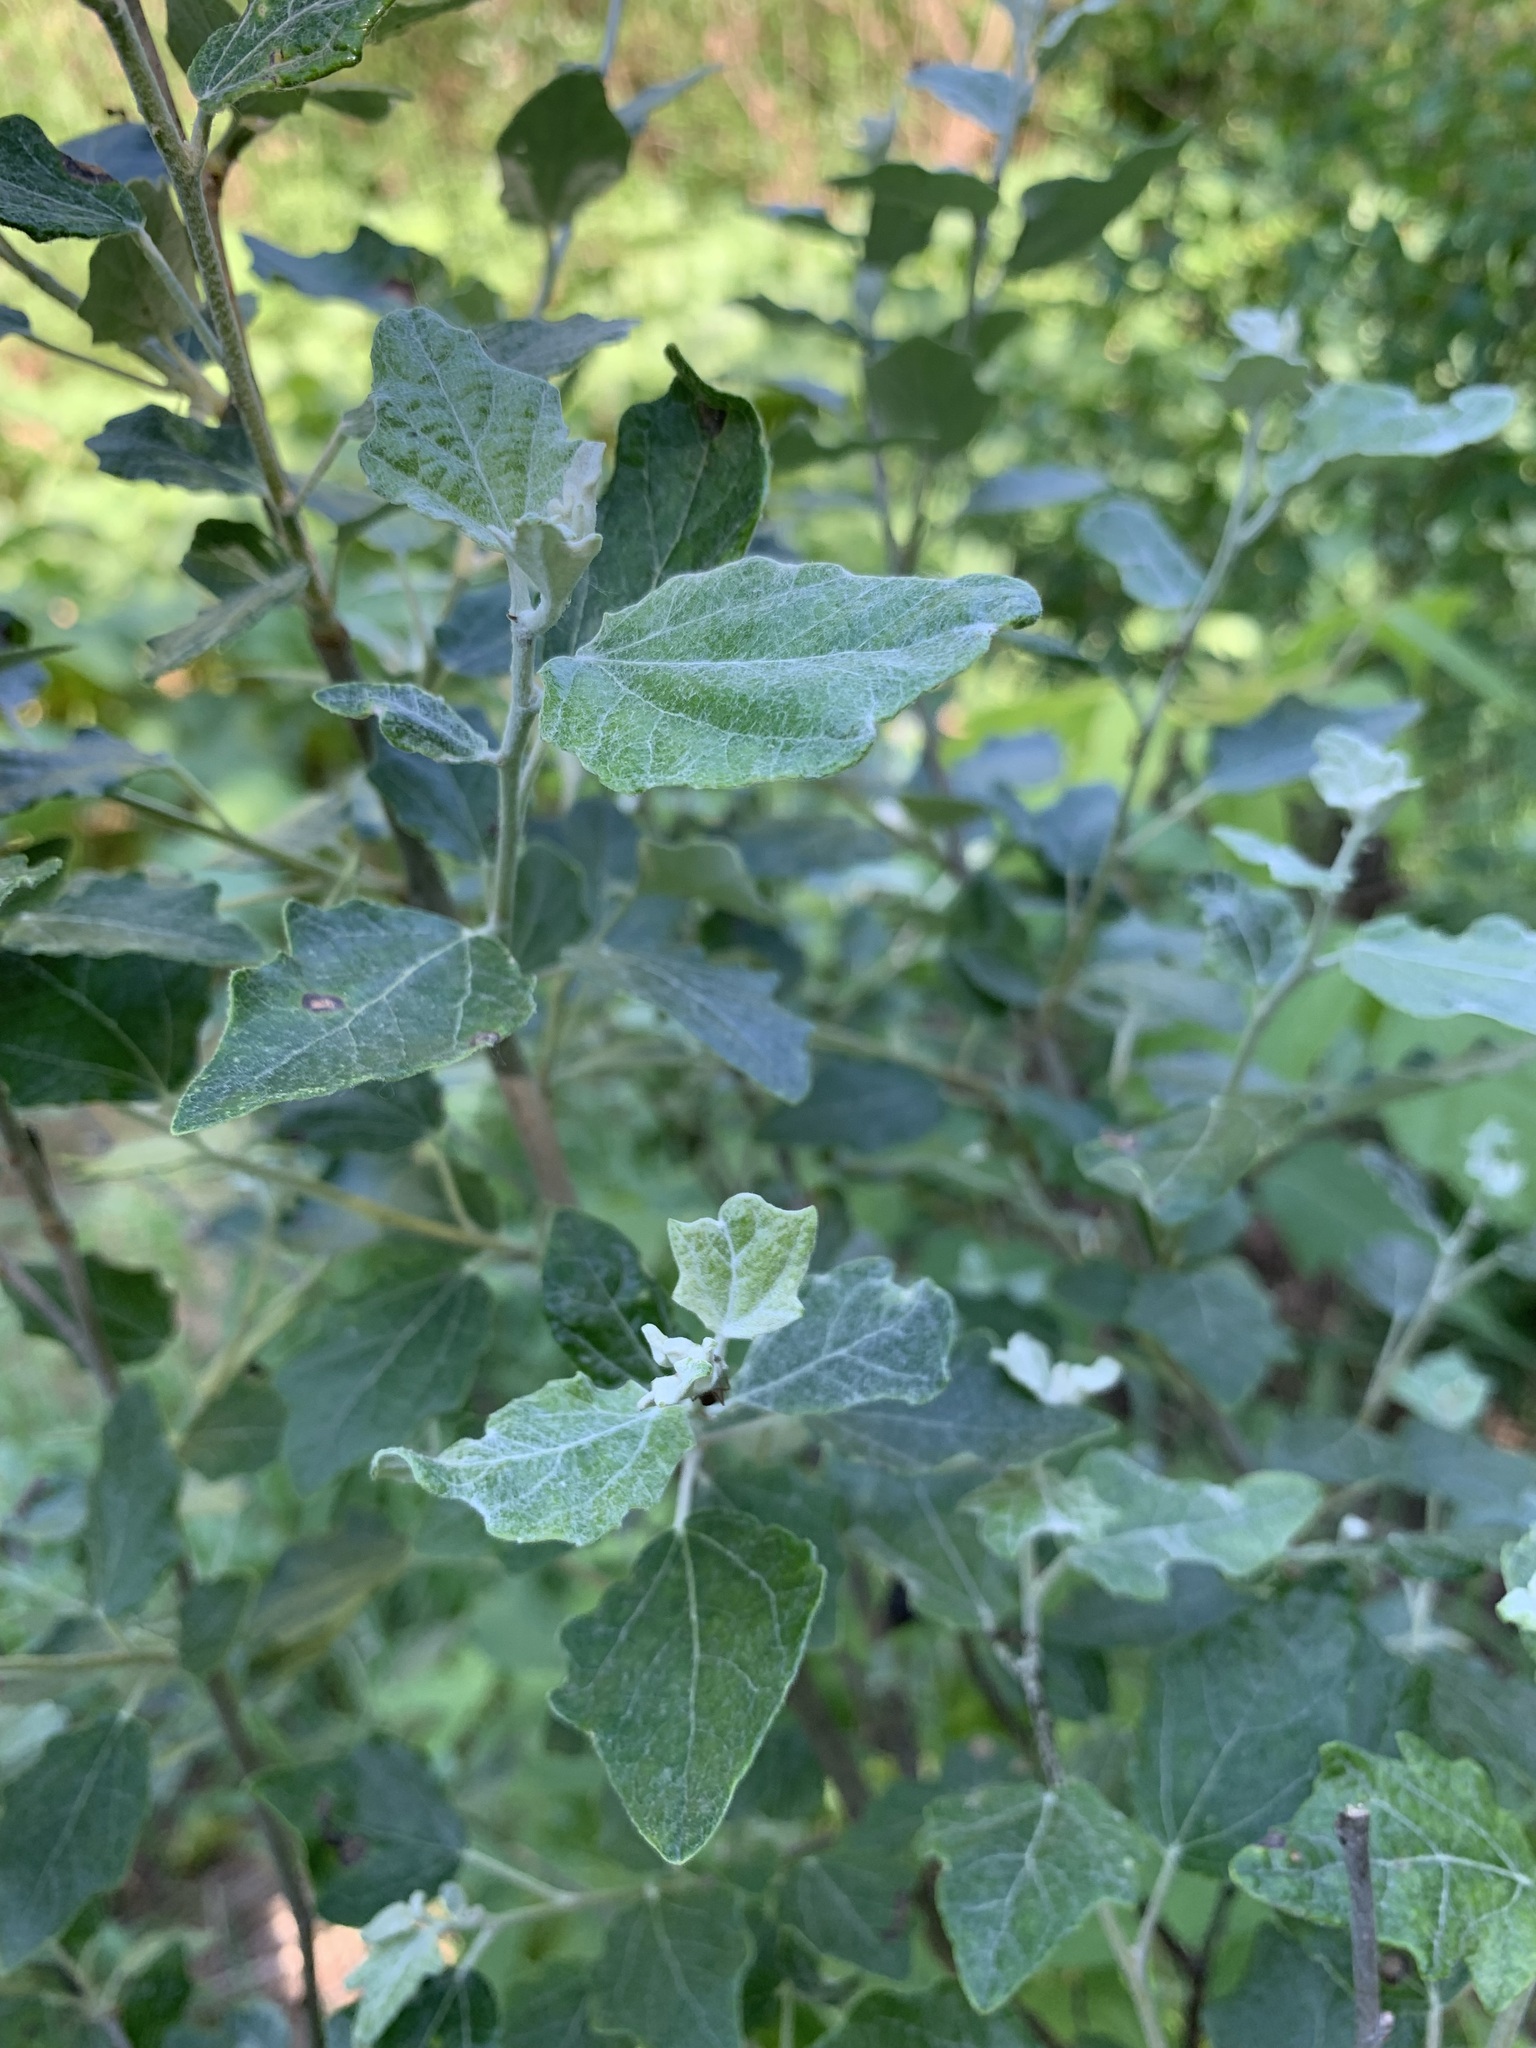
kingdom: Plantae
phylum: Tracheophyta
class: Magnoliopsida
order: Malpighiales
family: Salicaceae
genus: Populus
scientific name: Populus alba
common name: White poplar
